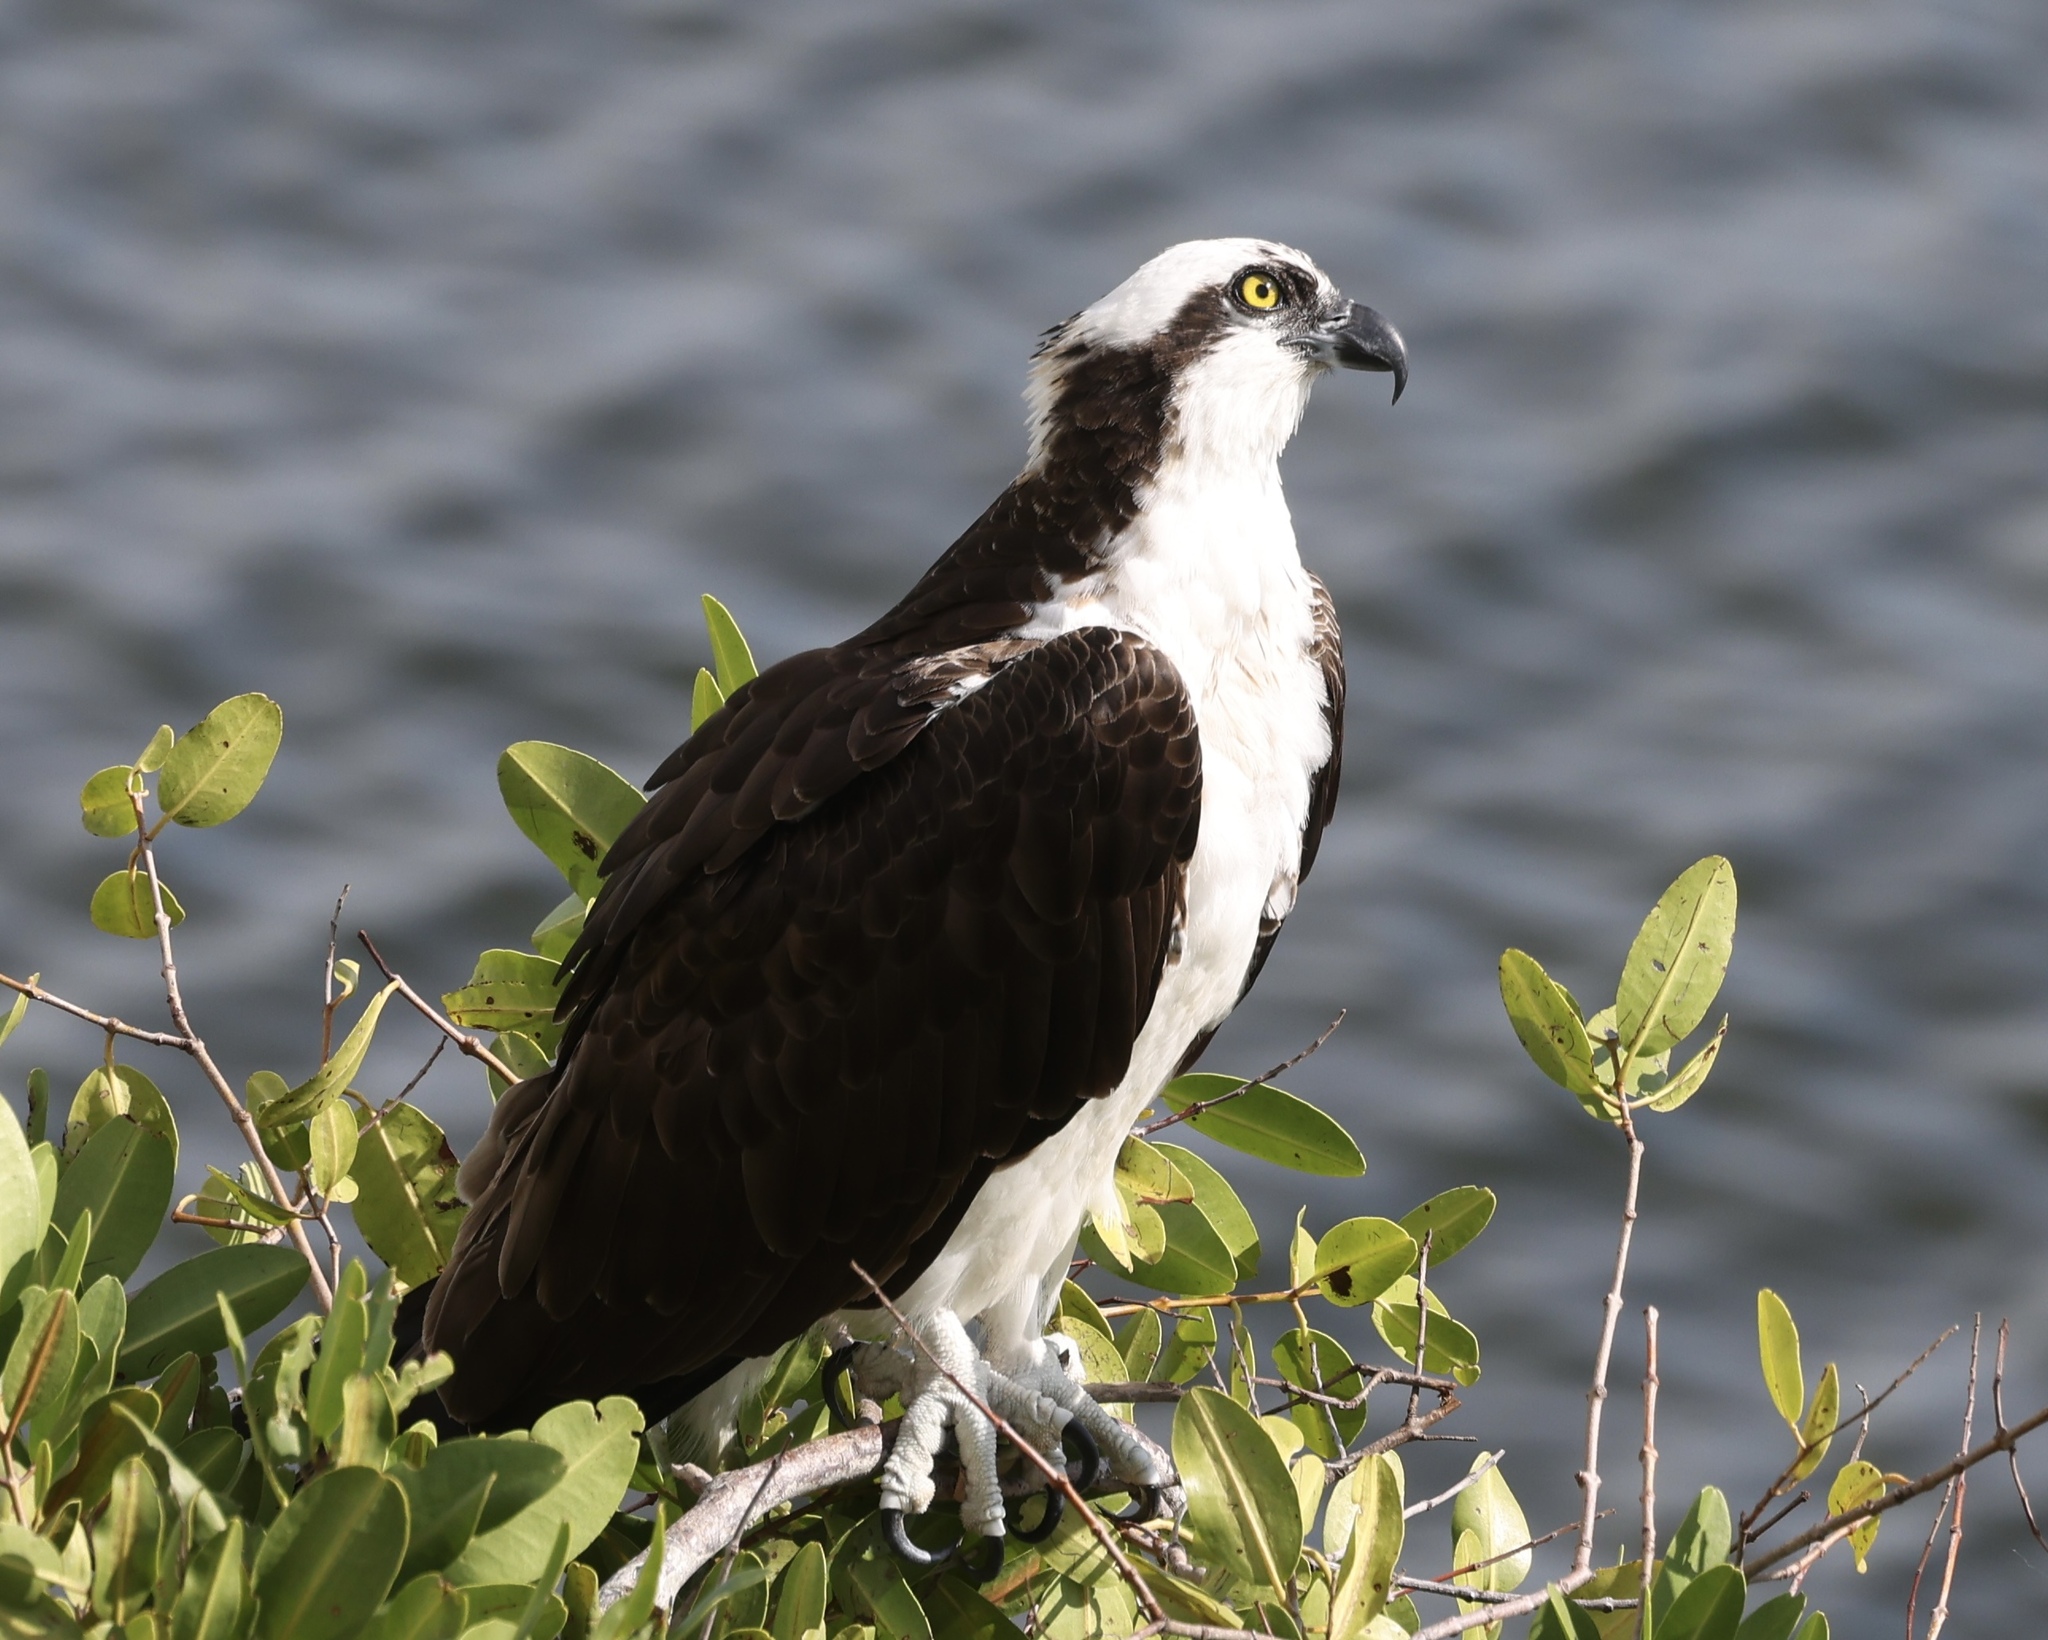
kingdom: Animalia
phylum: Chordata
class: Aves
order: Accipitriformes
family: Pandionidae
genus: Pandion
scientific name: Pandion haliaetus
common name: Osprey
